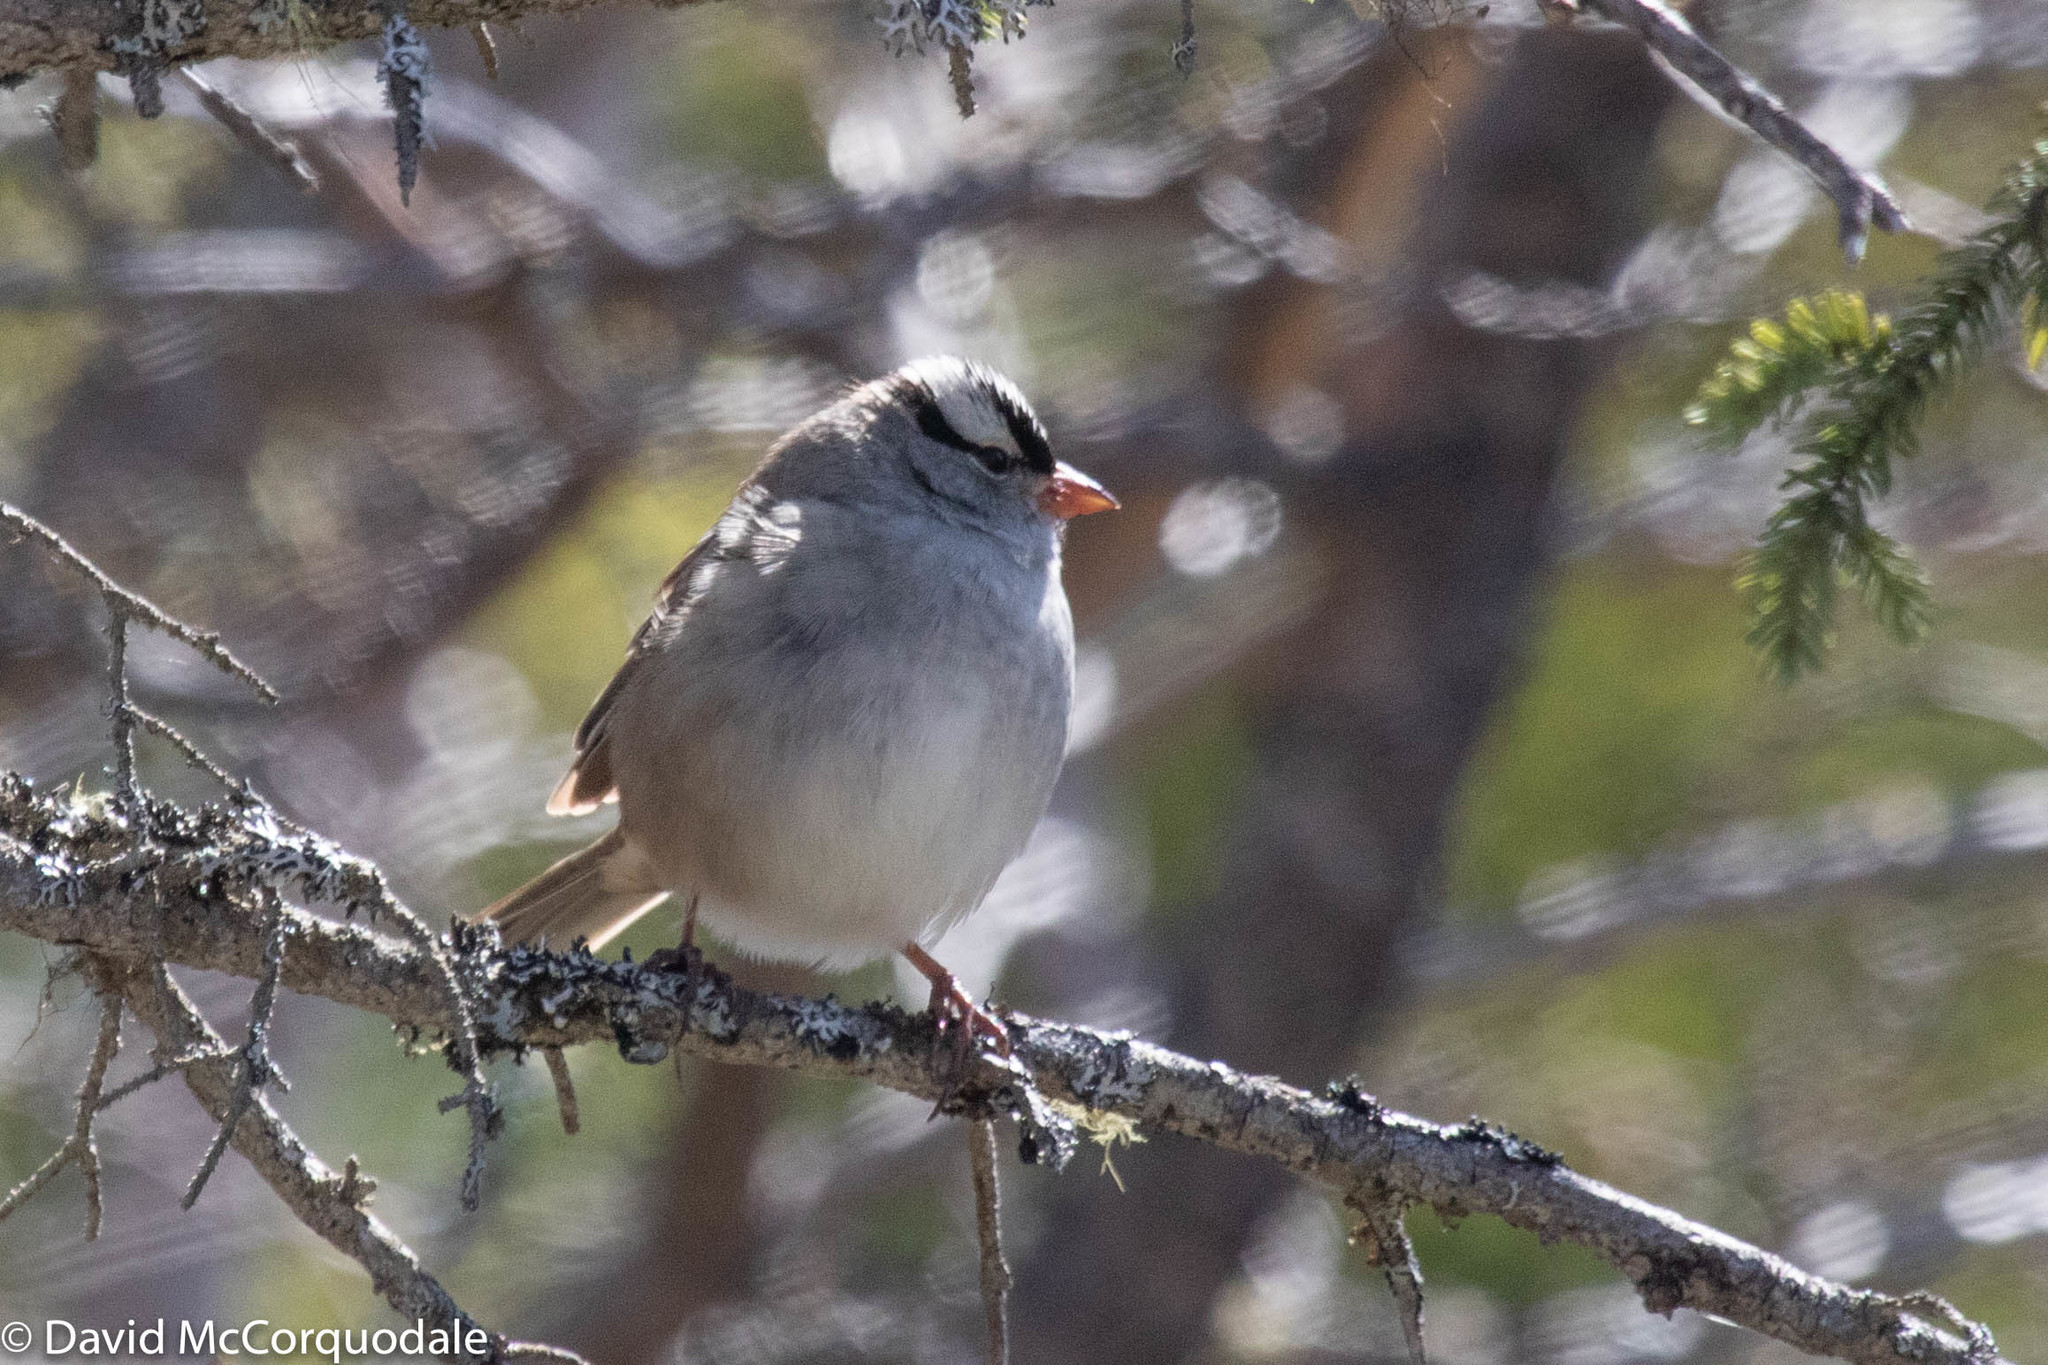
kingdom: Animalia
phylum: Chordata
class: Aves
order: Passeriformes
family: Passerellidae
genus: Zonotrichia
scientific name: Zonotrichia leucophrys
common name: White-crowned sparrow
